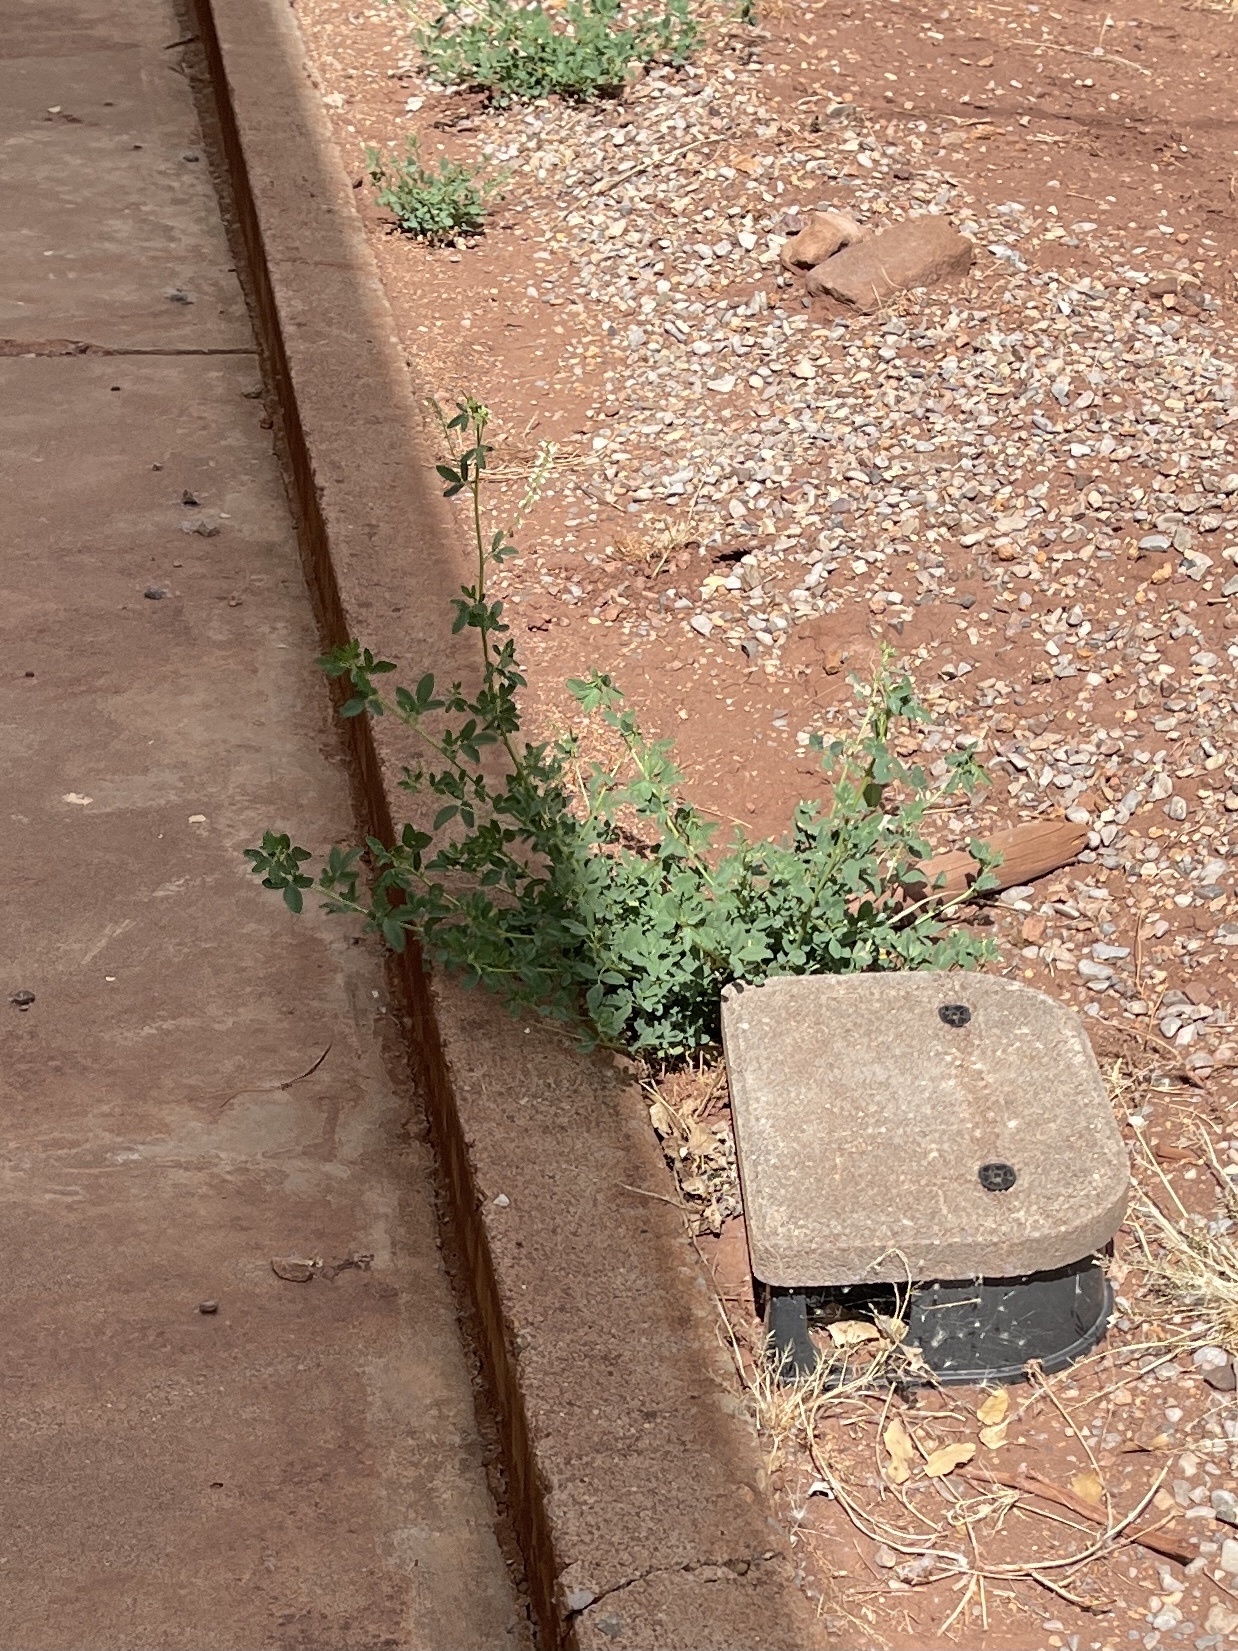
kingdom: Plantae
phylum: Tracheophyta
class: Magnoliopsida
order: Fabales
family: Fabaceae
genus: Melilotus
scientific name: Melilotus albus
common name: White melilot
